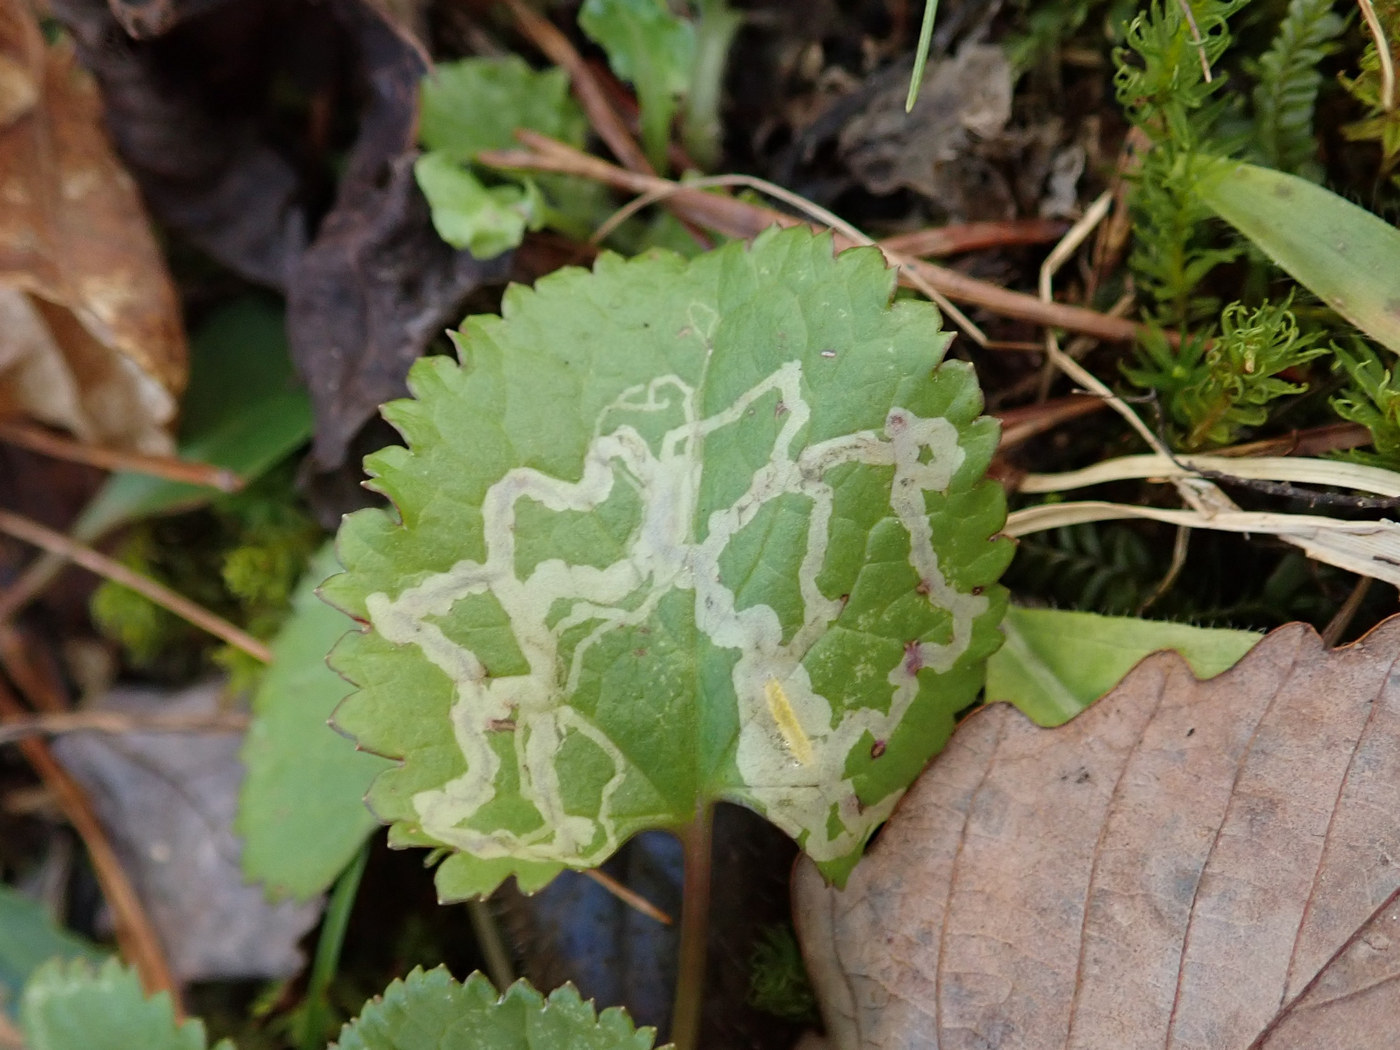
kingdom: Animalia
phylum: Arthropoda
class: Insecta
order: Lepidoptera
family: Gracillariidae
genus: Phyllocnistis
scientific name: Phyllocnistis insignis
